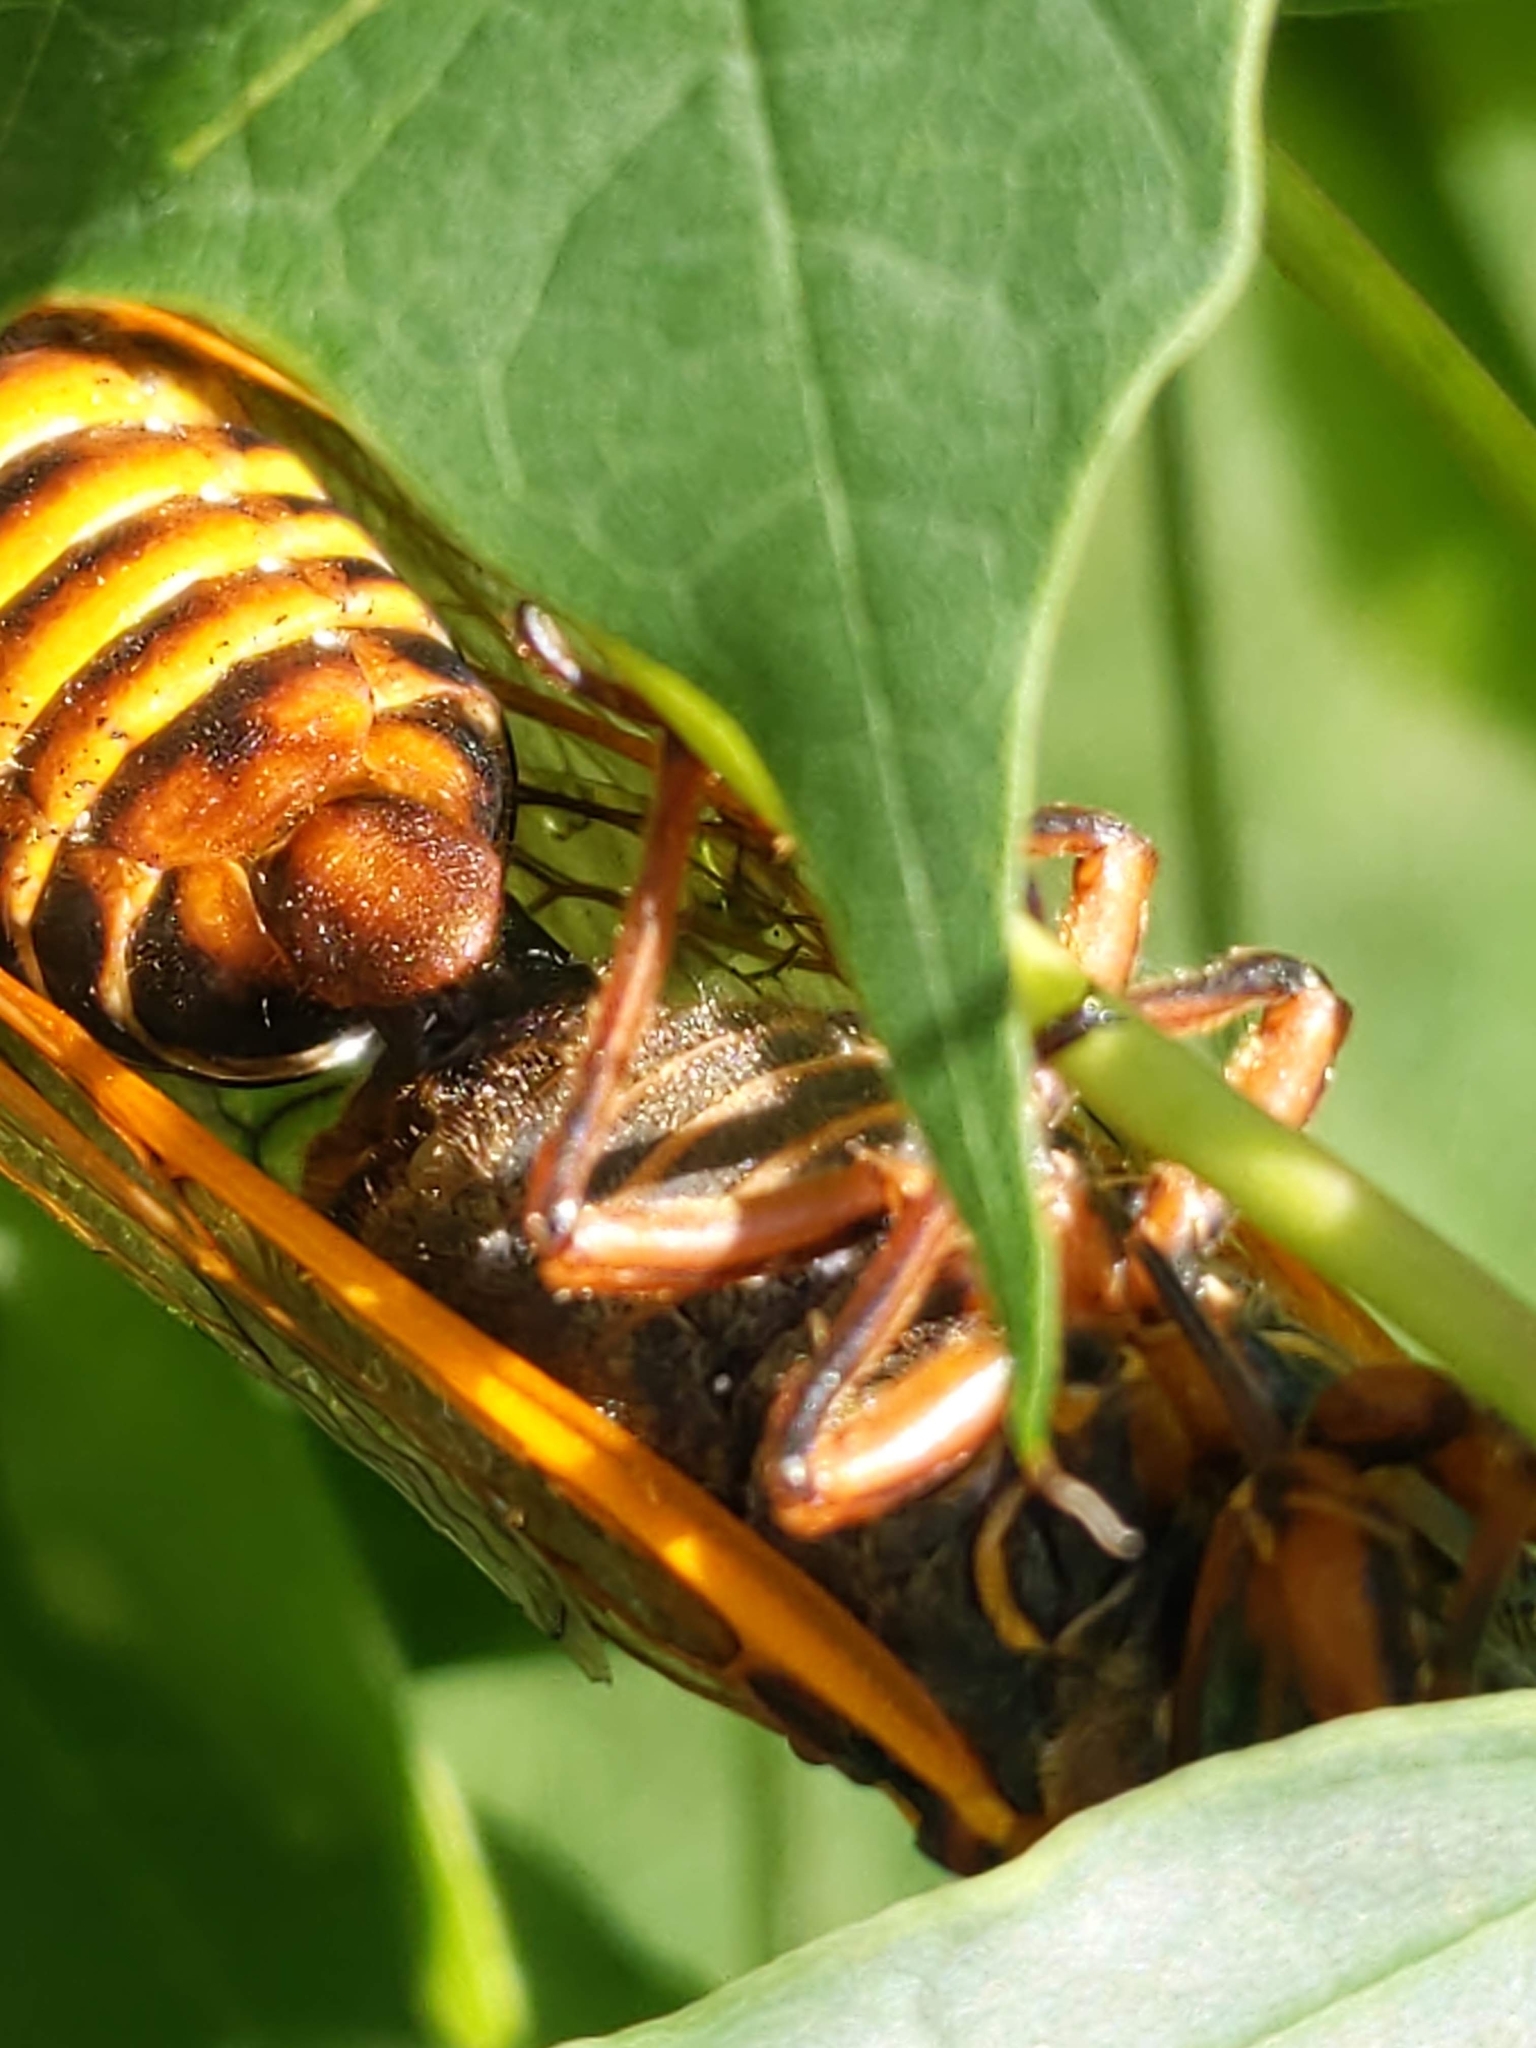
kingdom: Animalia
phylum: Arthropoda
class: Insecta
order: Hemiptera
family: Cicadidae
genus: Magicicada
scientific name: Magicicada septendecim
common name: Periodical cicada
